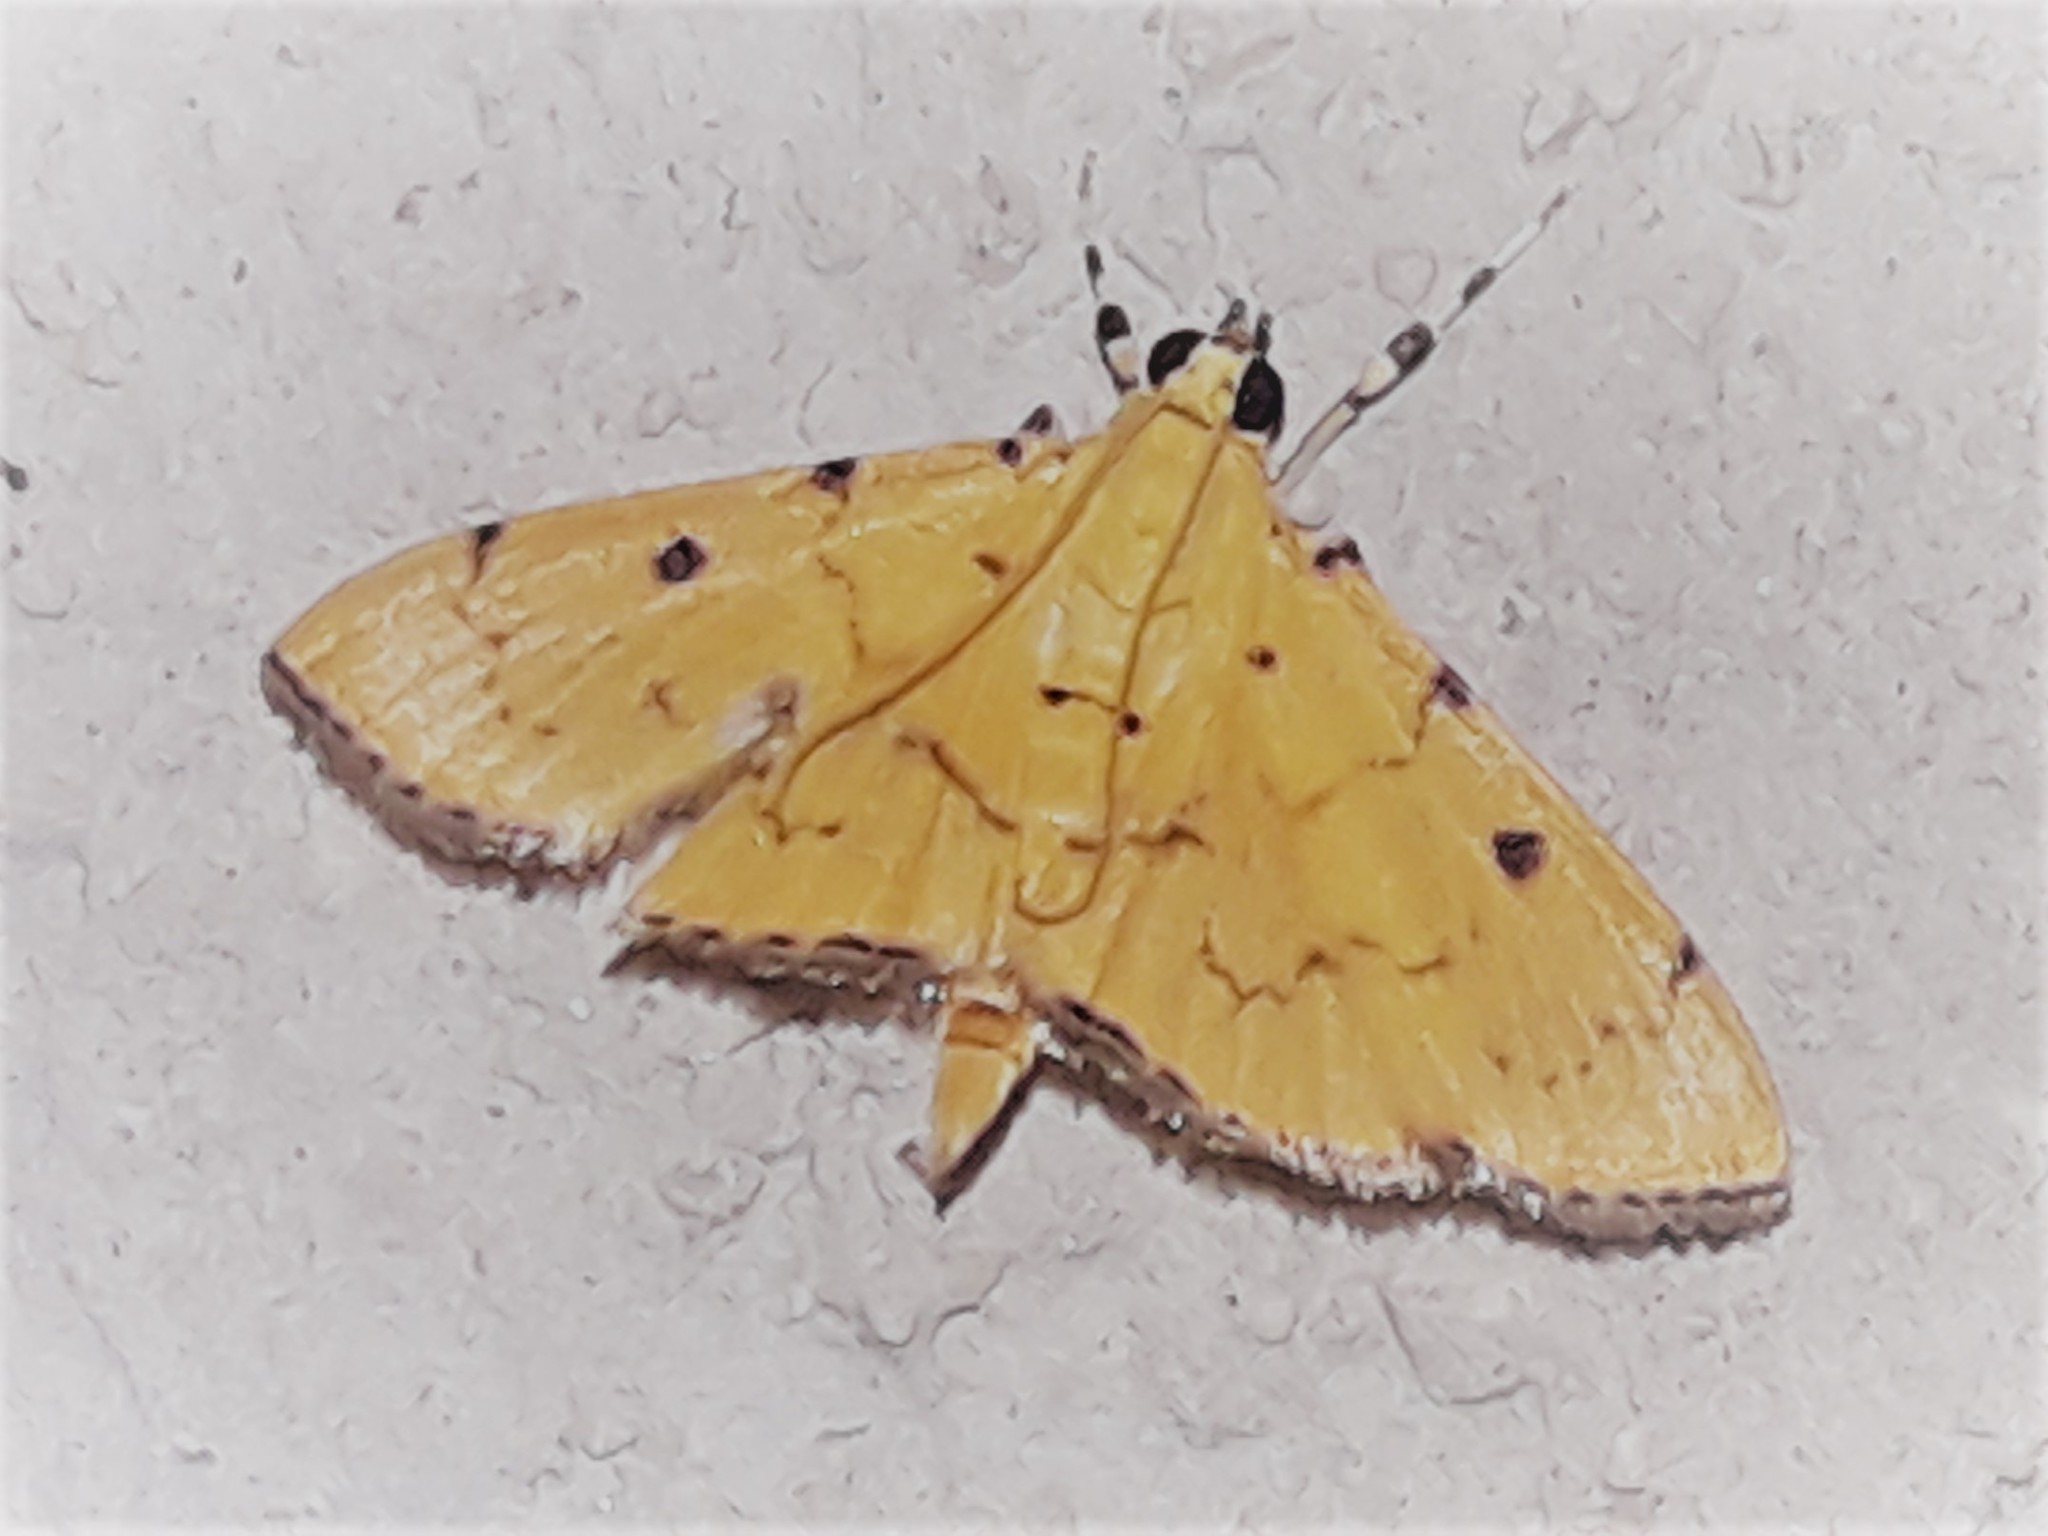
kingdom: Animalia
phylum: Arthropoda
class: Insecta
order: Lepidoptera
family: Crambidae
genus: Lygropia
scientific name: Lygropia cernalis
